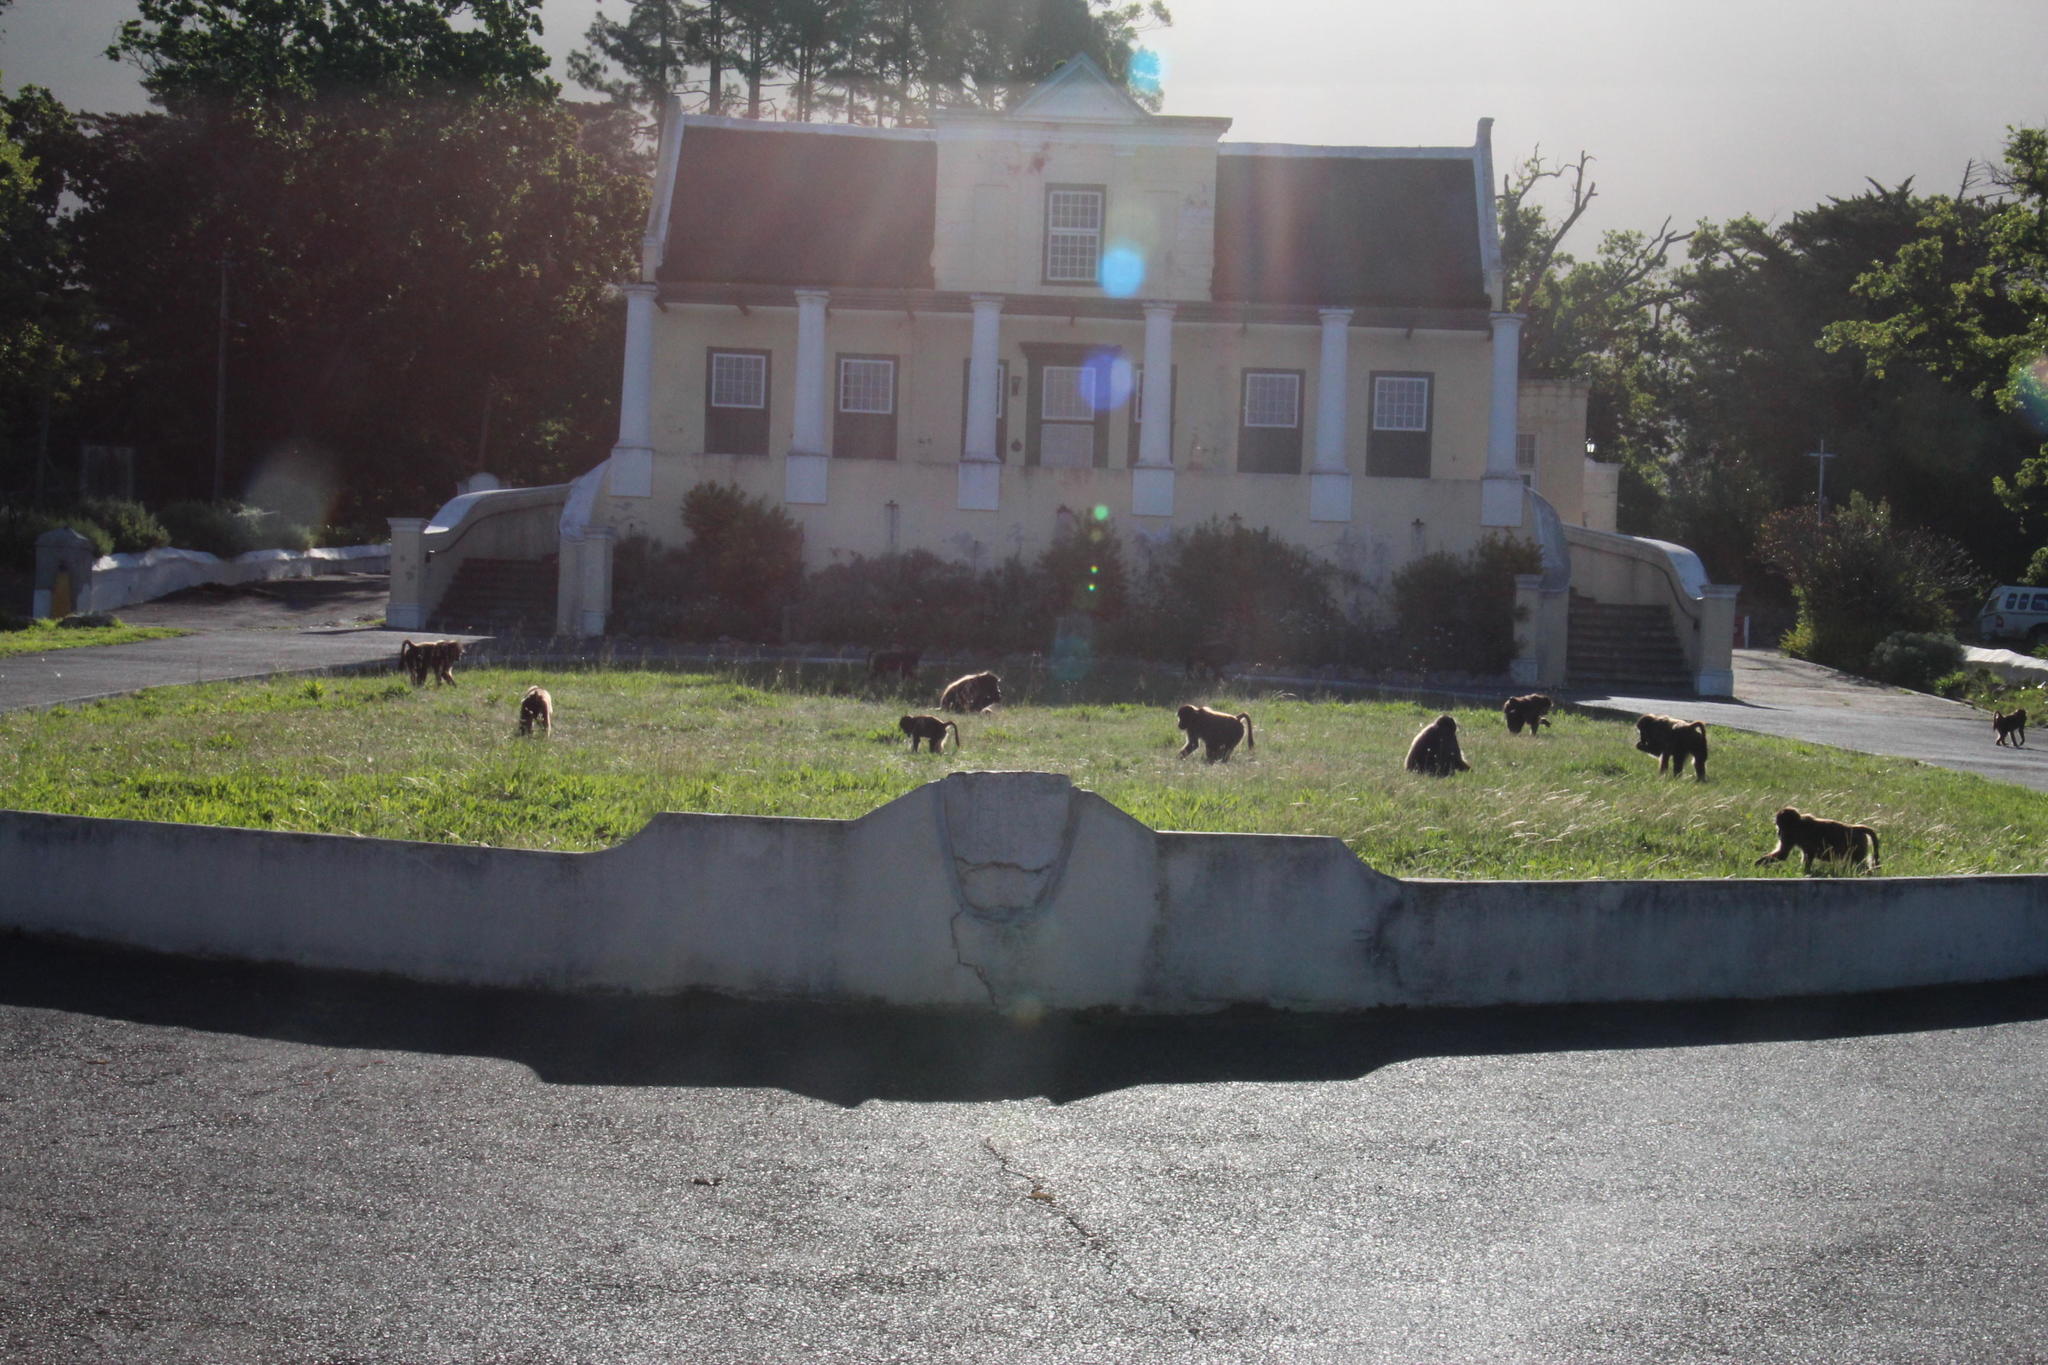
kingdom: Animalia
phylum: Chordata
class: Mammalia
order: Primates
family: Cercopithecidae
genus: Papio
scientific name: Papio ursinus
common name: Chacma baboon
